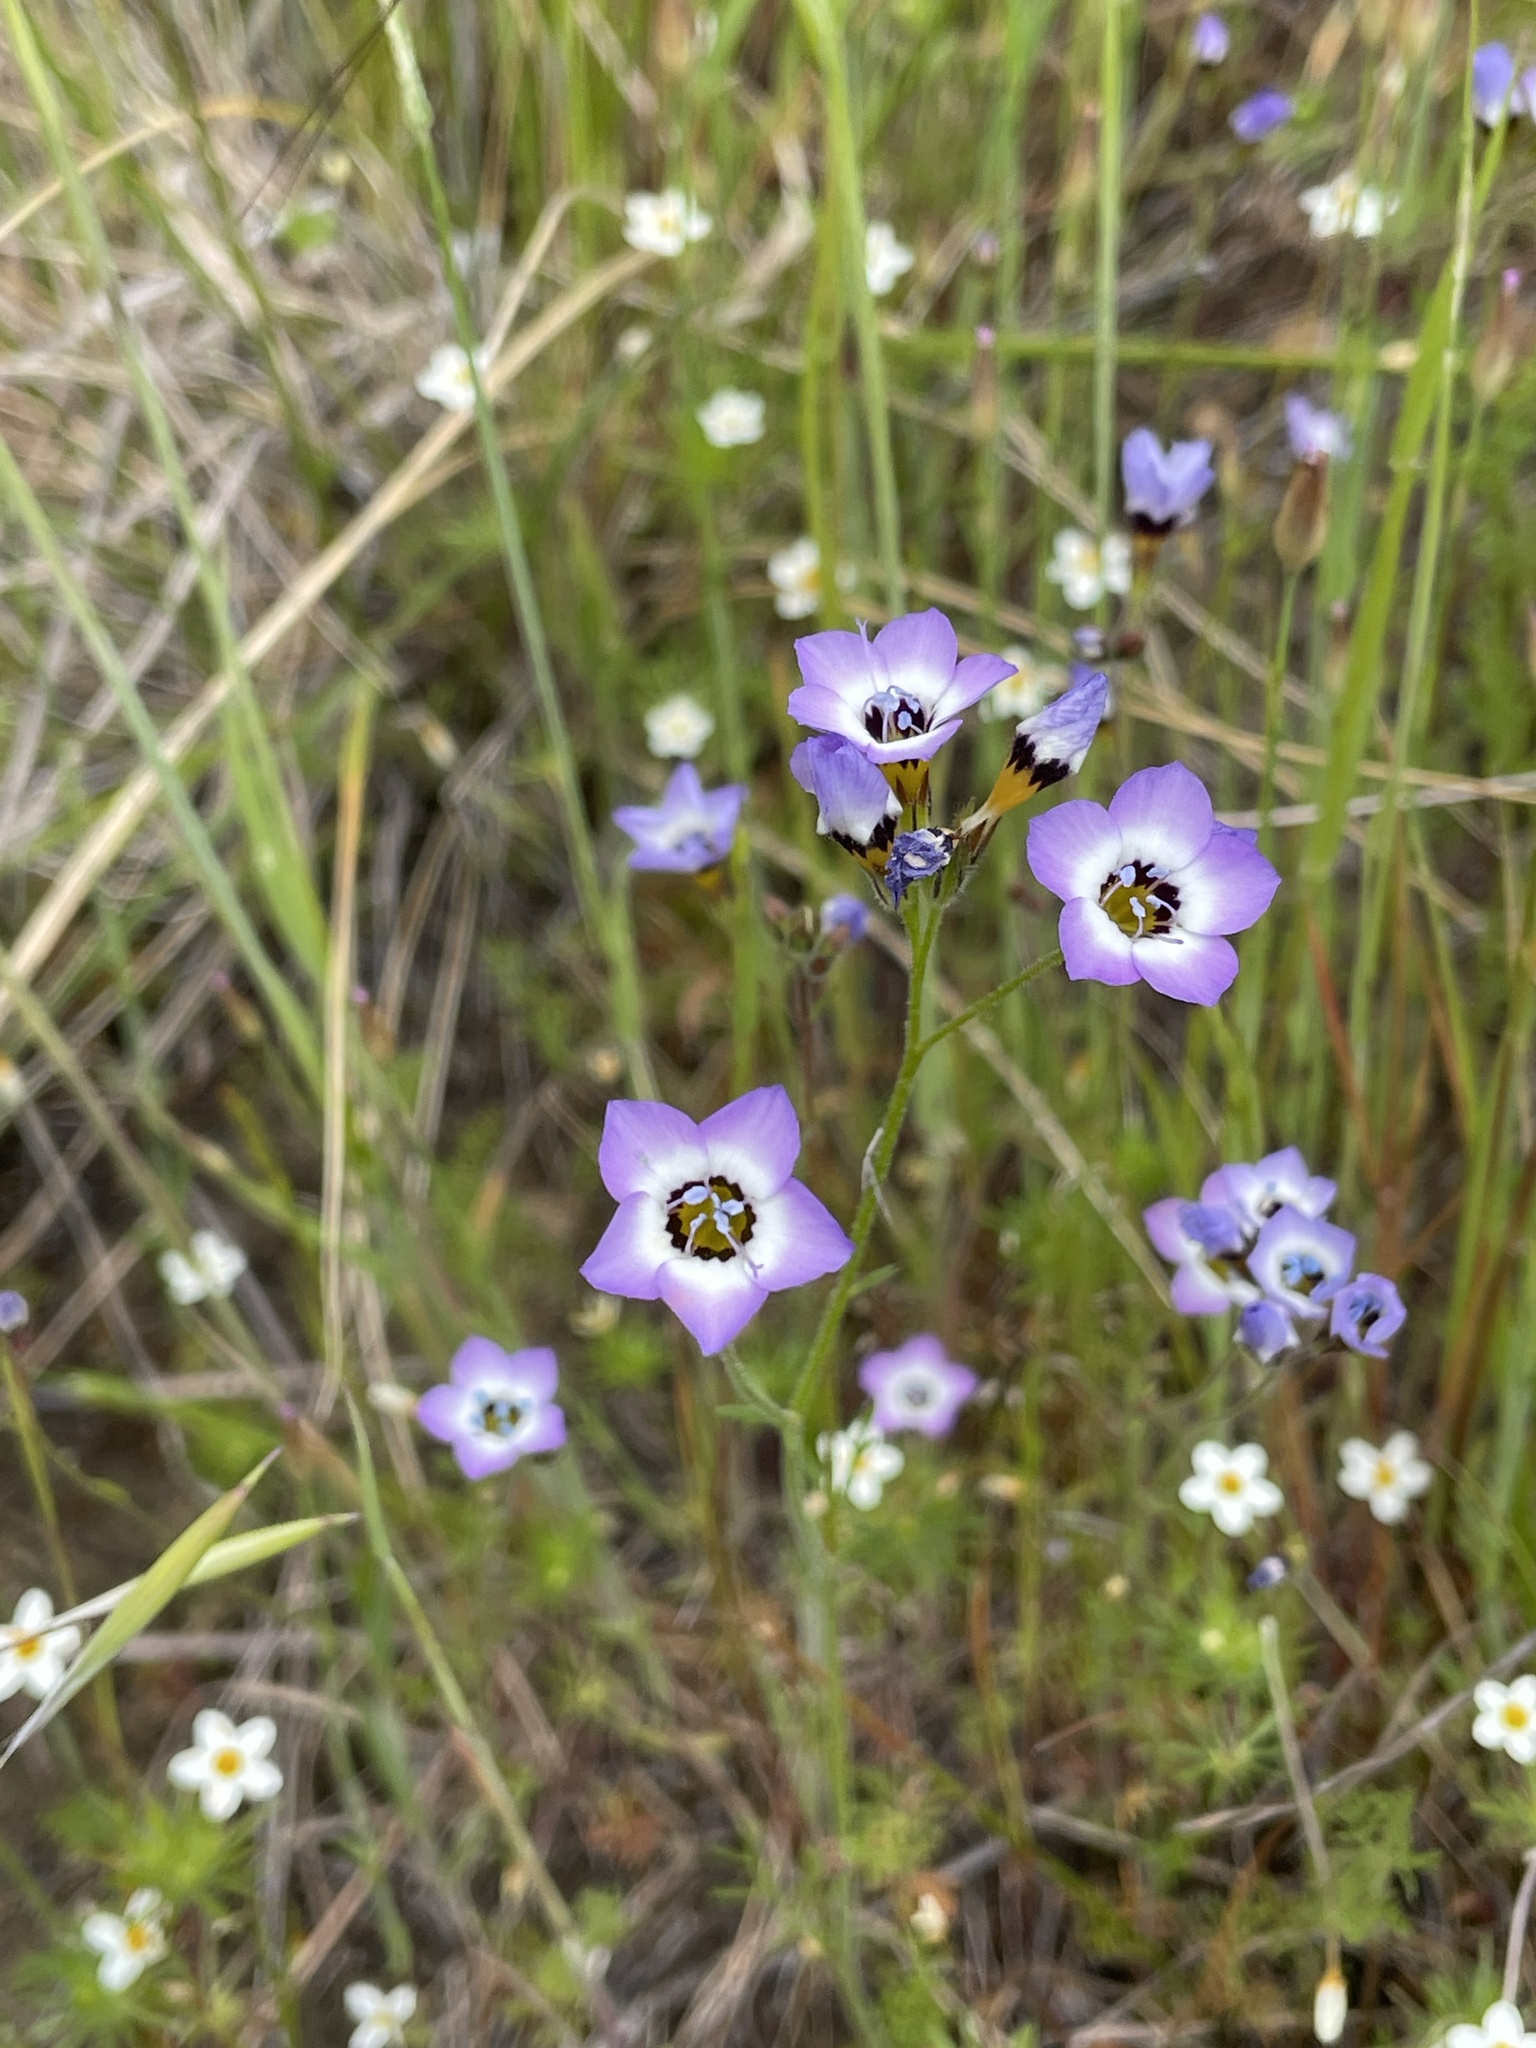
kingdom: Plantae
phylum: Tracheophyta
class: Magnoliopsida
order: Ericales
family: Polemoniaceae
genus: Gilia
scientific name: Gilia tricolor
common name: Bird's-eyes
